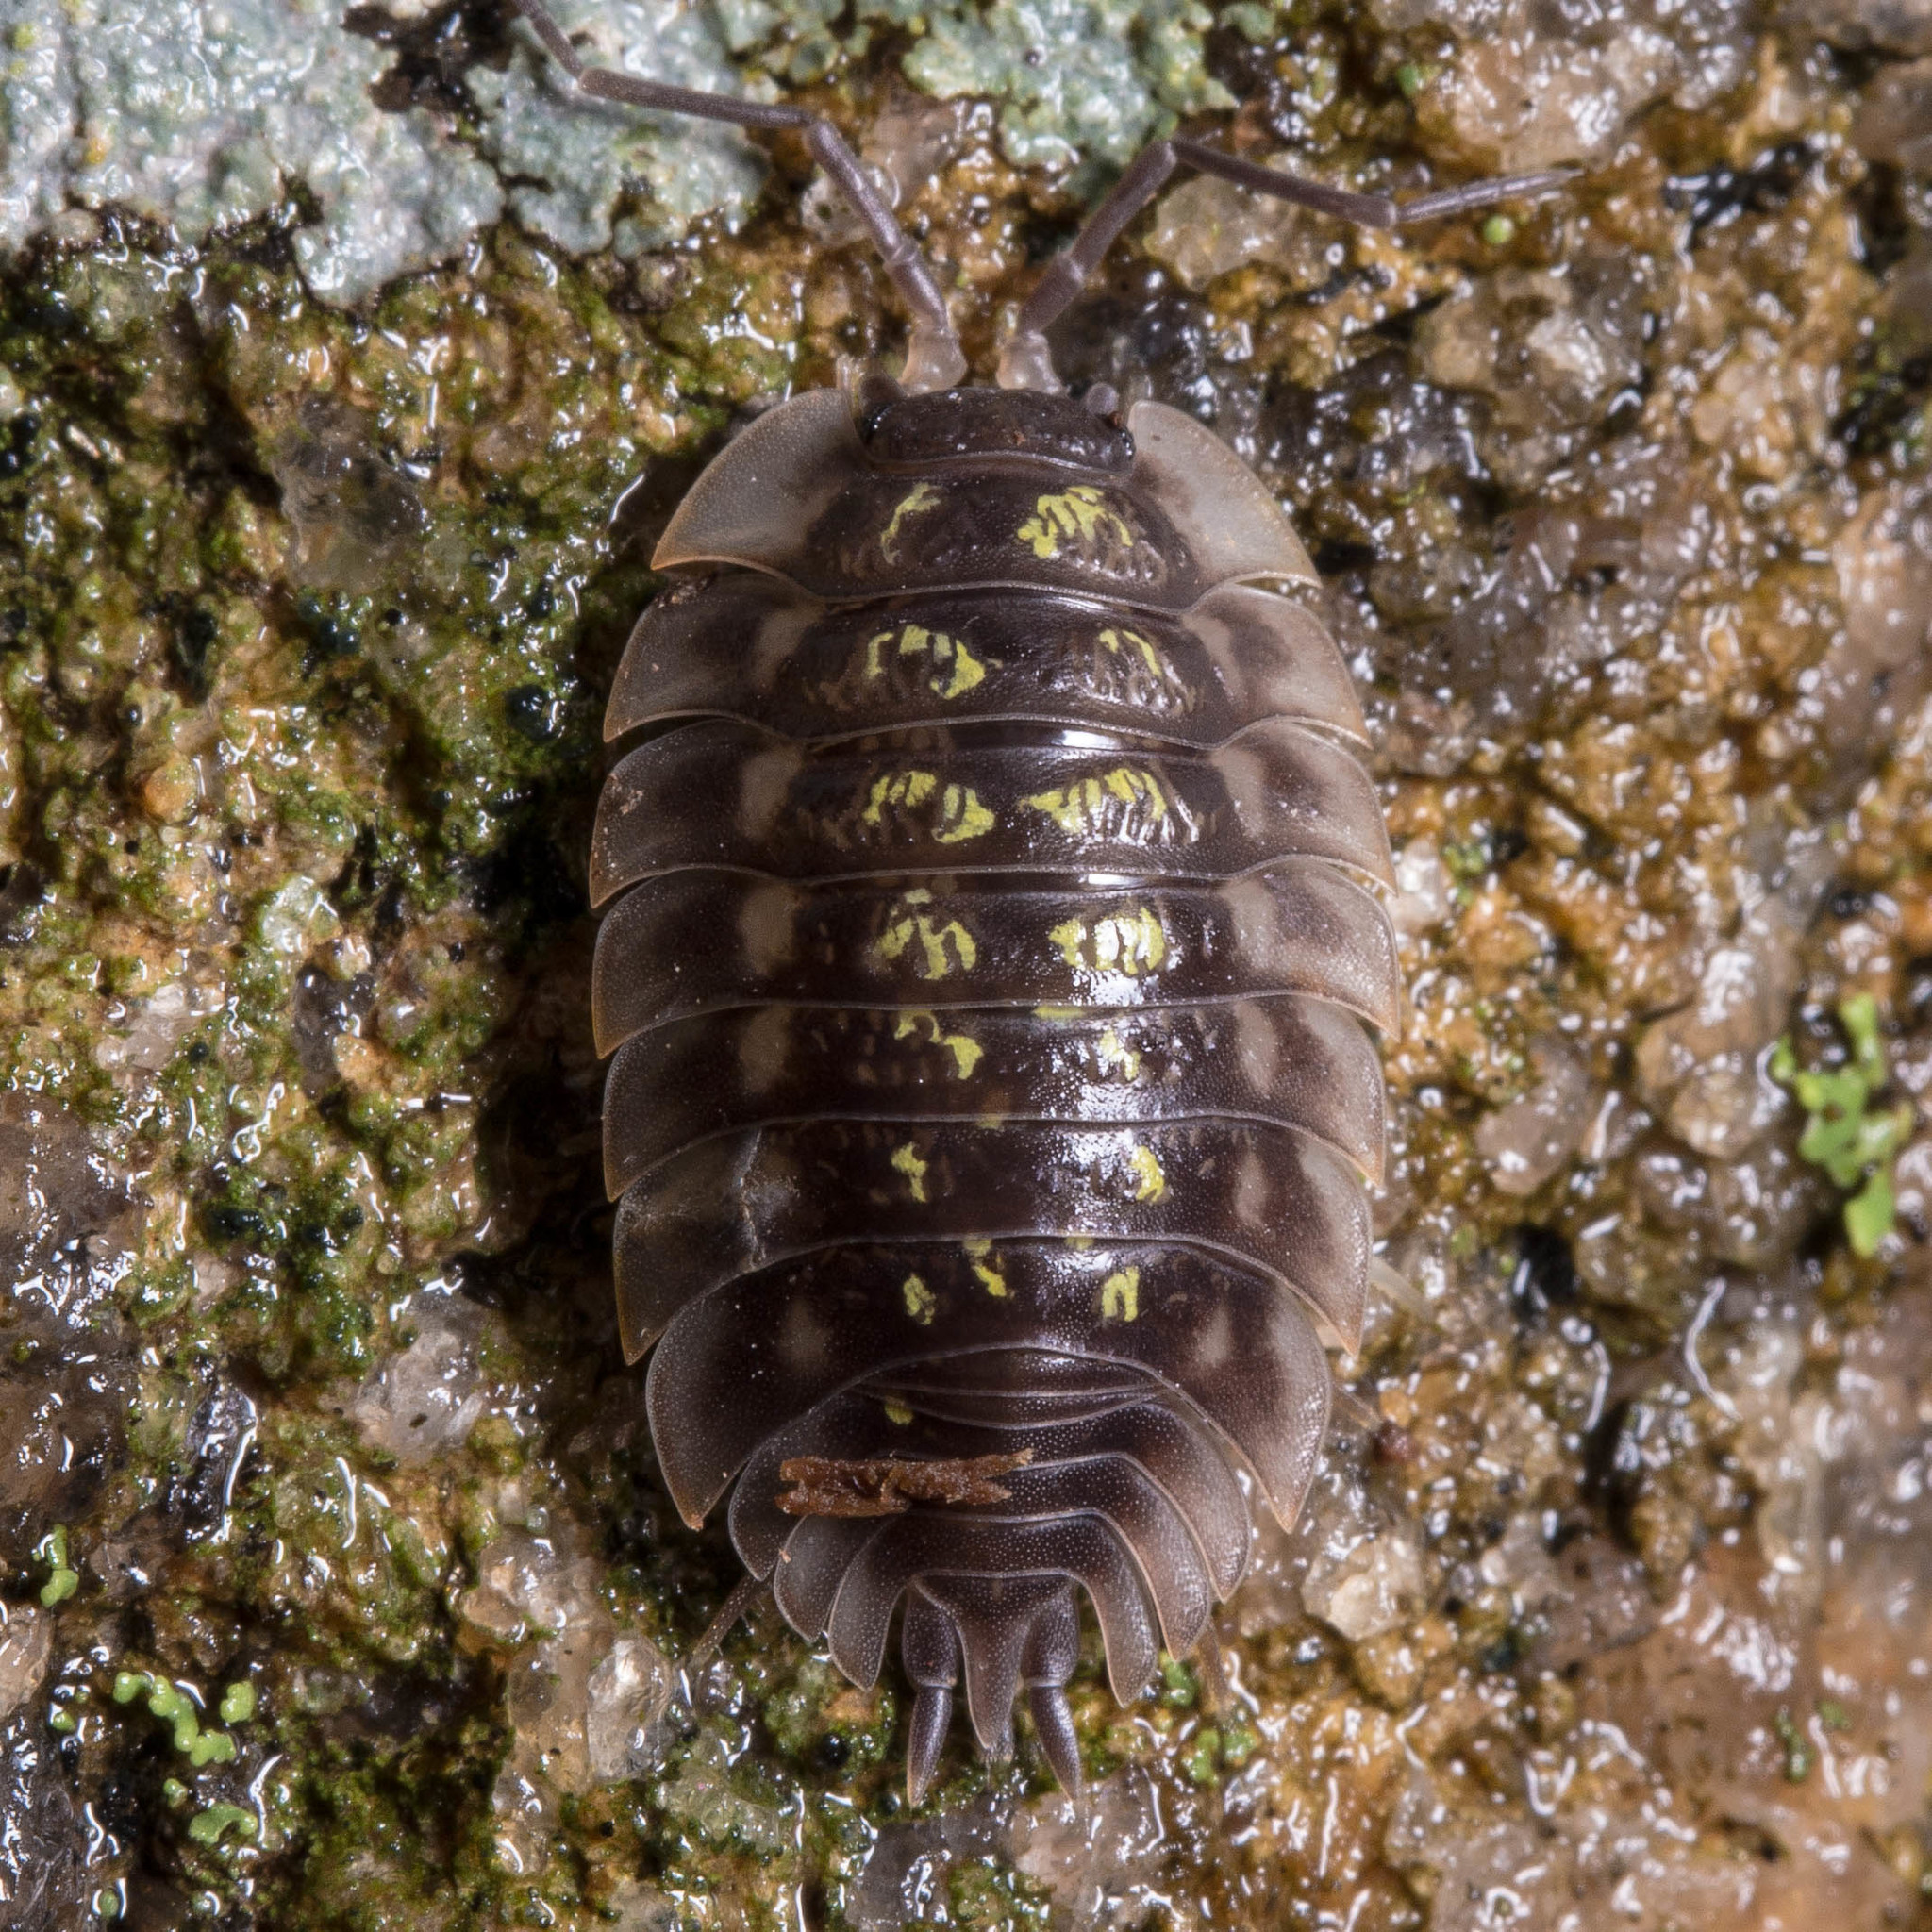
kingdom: Animalia
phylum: Arthropoda
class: Malacostraca
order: Isopoda
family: Oniscidae
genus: Oniscus
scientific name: Oniscus asellus
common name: Common shiny woodlouse
